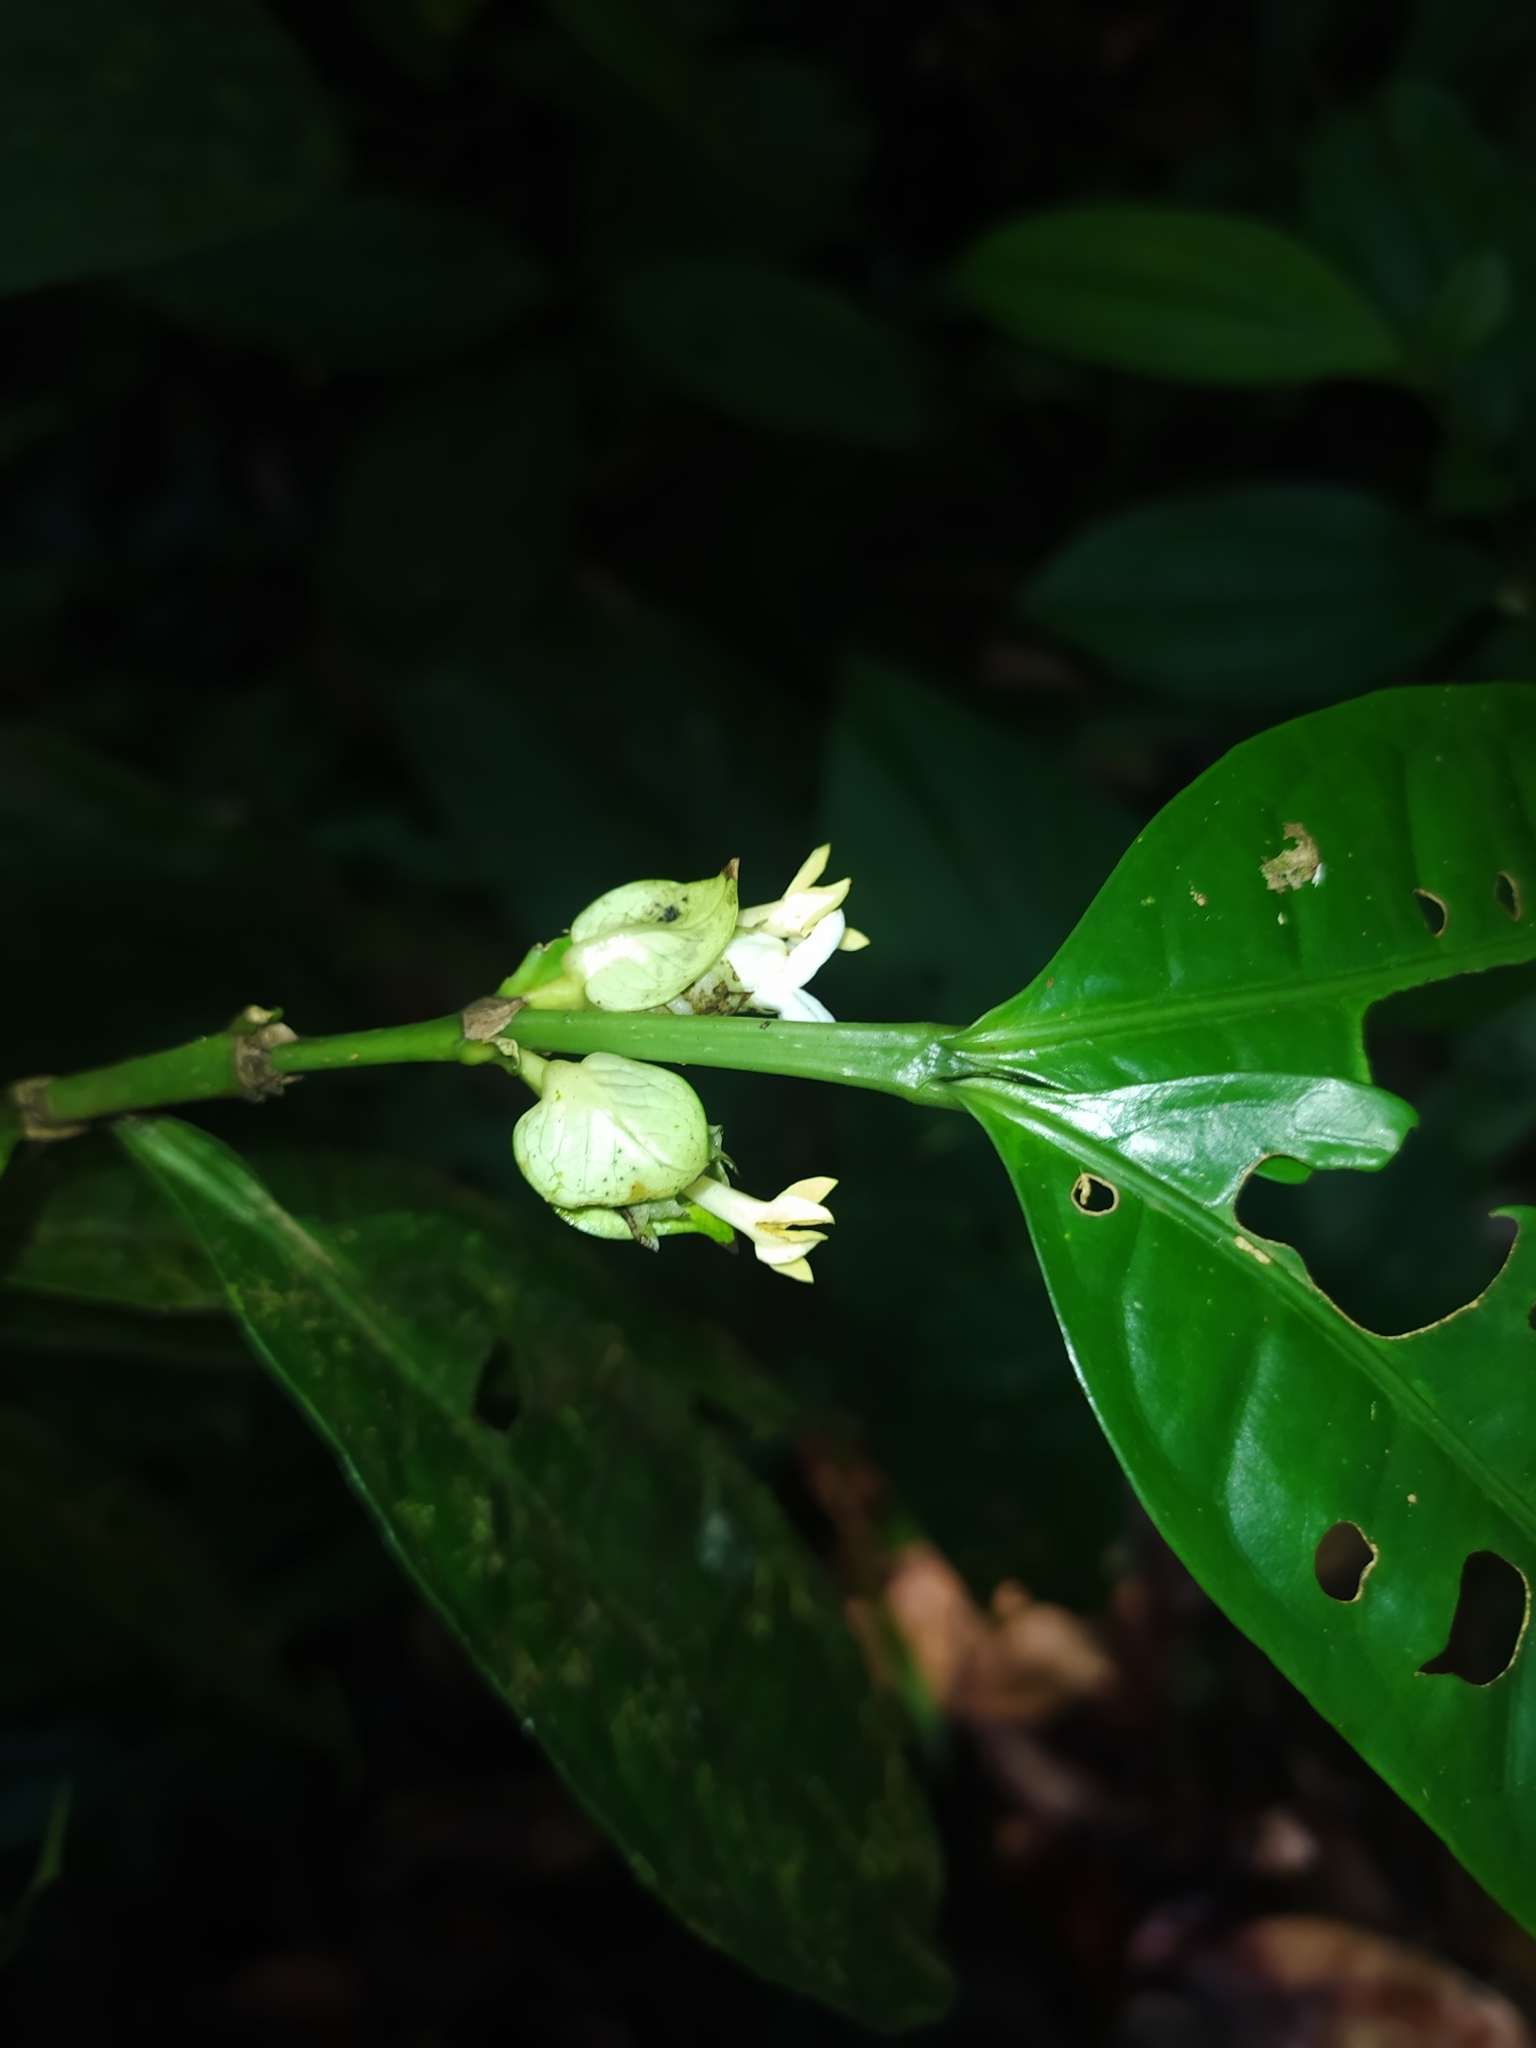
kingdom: Plantae
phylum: Tracheophyta
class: Magnoliopsida
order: Gentianales
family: Rubiaceae
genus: Faramea
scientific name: Faramea guianensis
